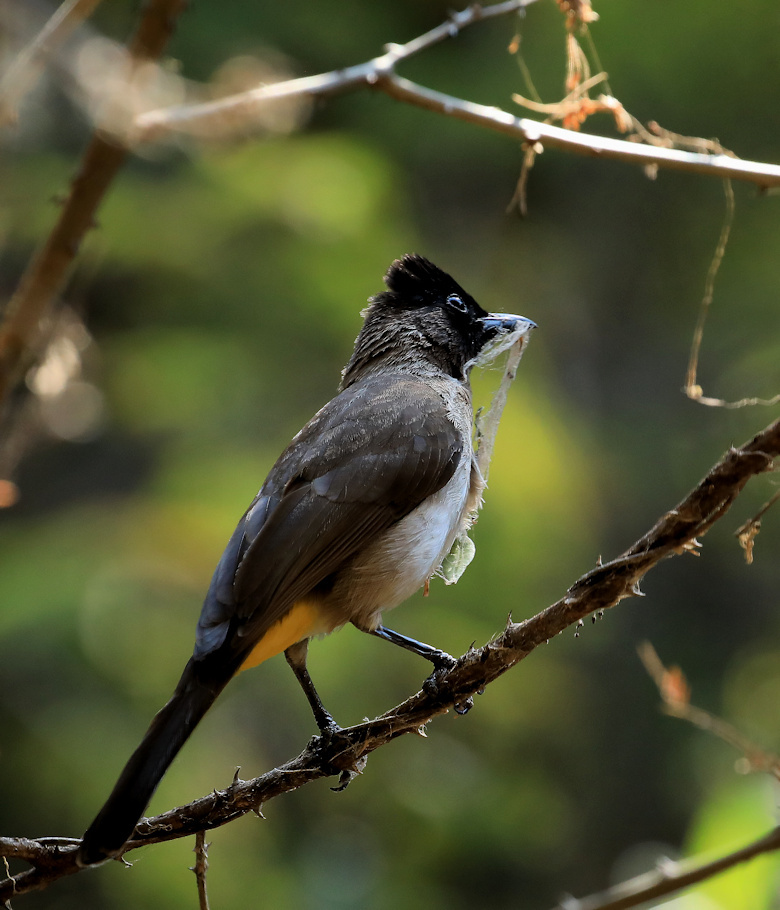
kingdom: Animalia
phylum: Chordata
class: Aves
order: Passeriformes
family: Pycnonotidae
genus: Pycnonotus
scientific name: Pycnonotus barbatus
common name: Common bulbul
